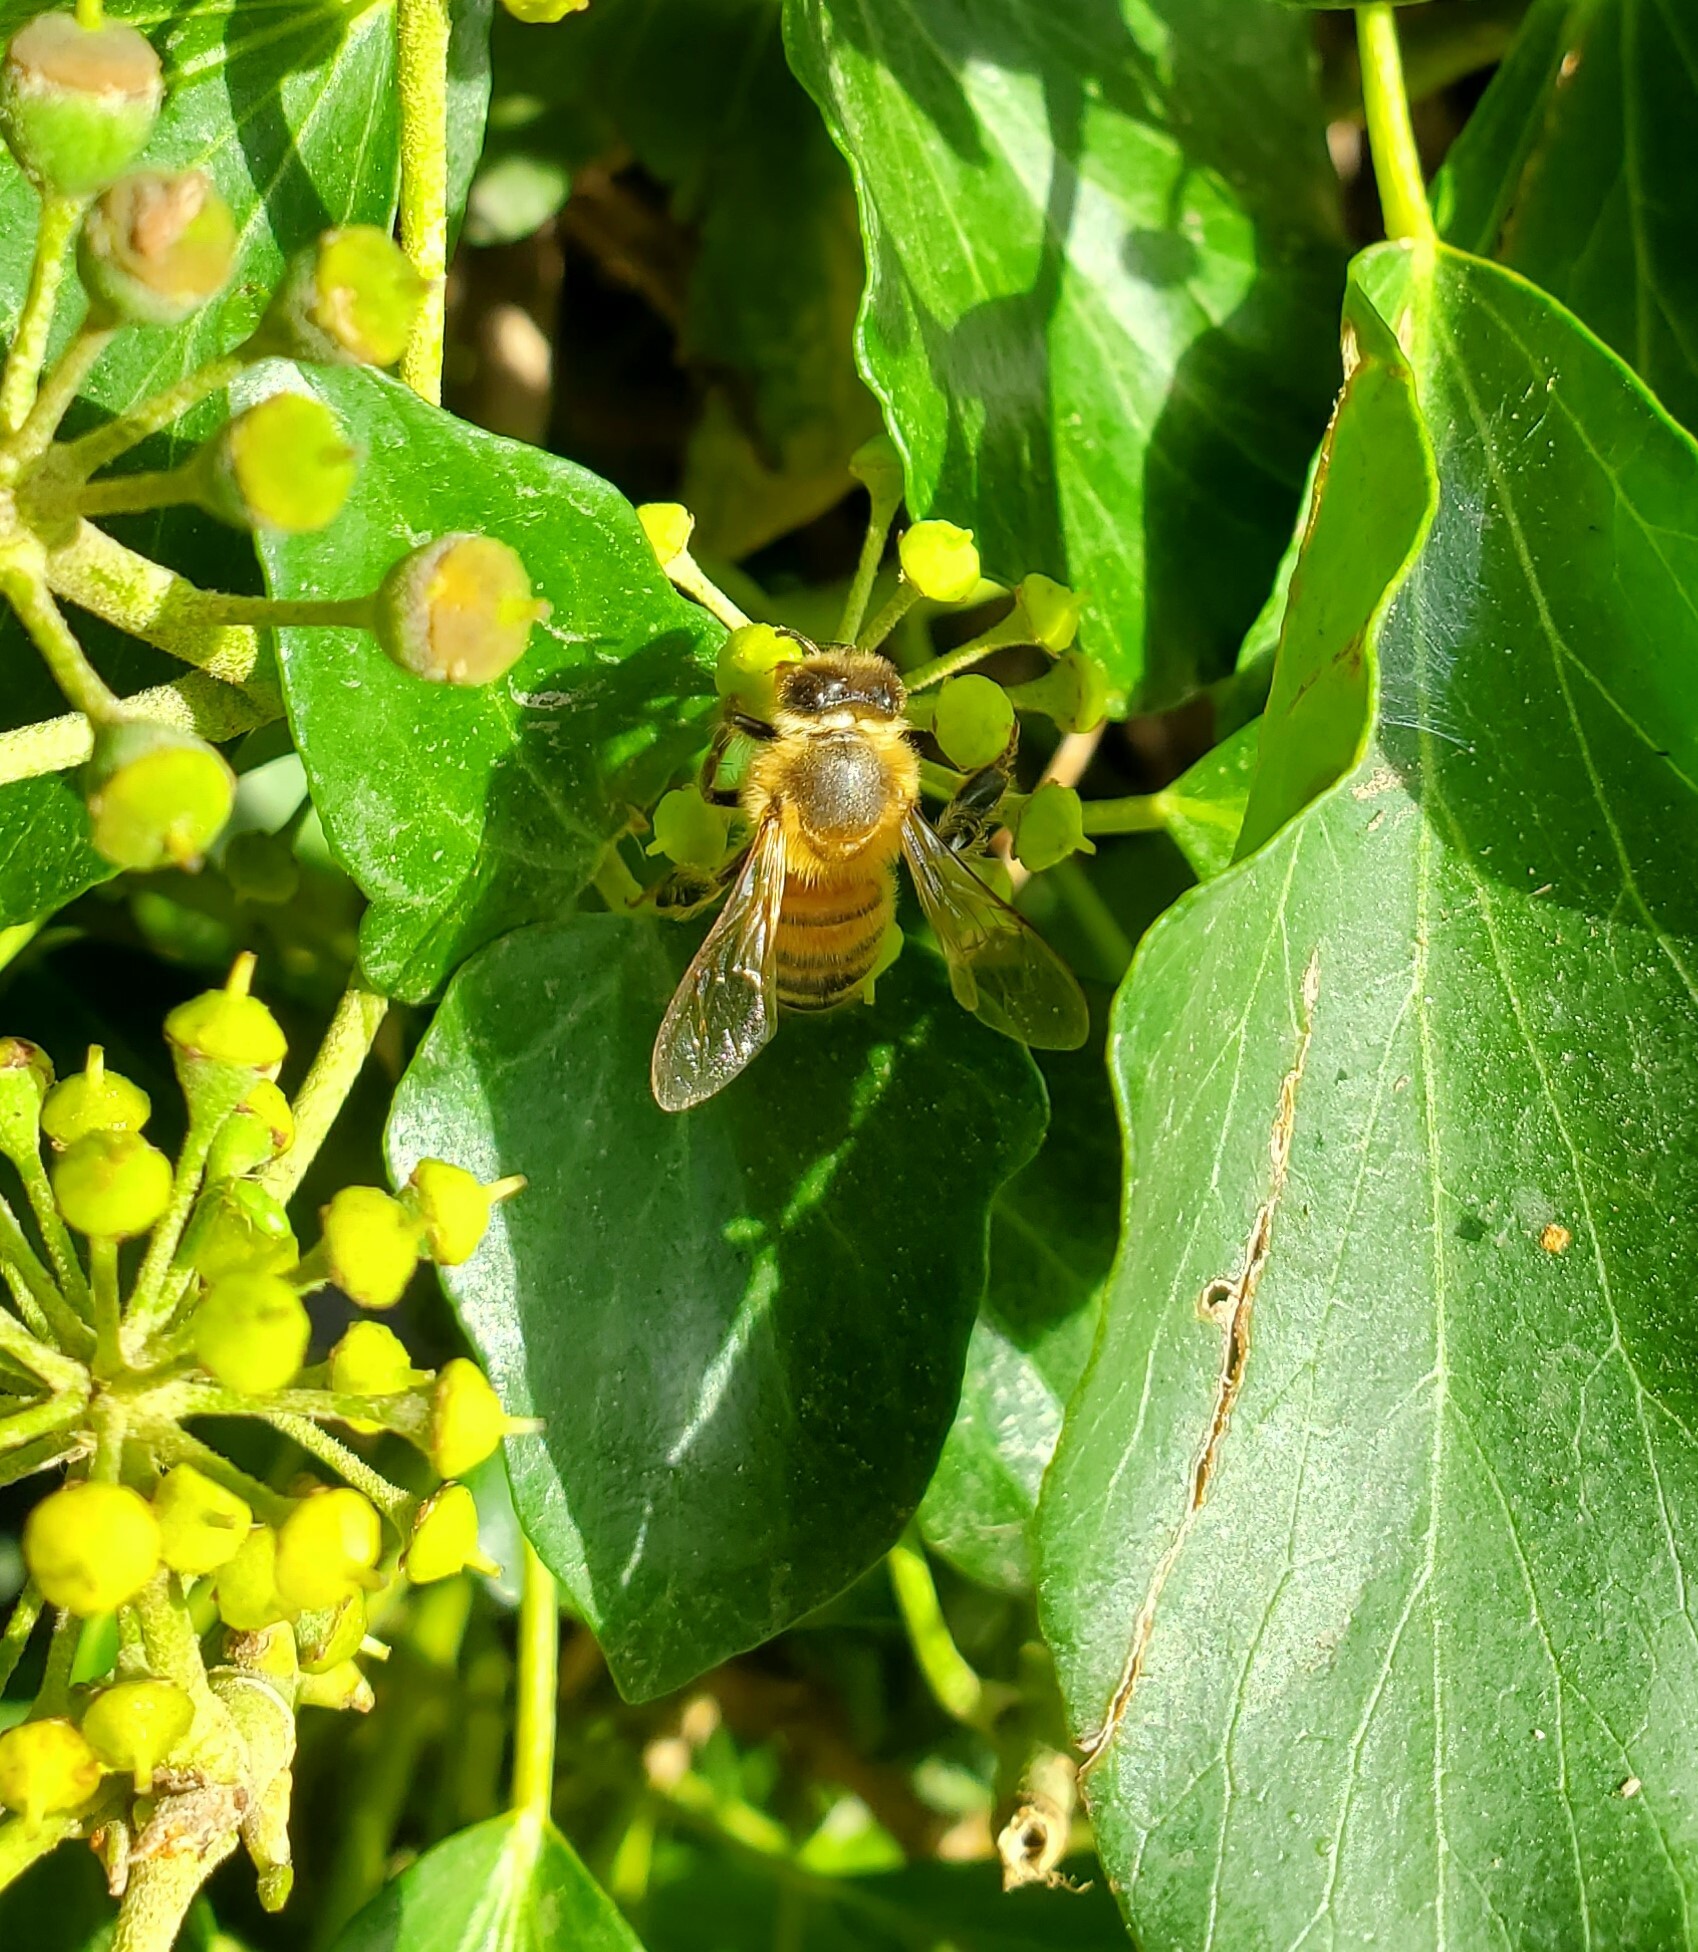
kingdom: Animalia
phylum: Arthropoda
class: Insecta
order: Hymenoptera
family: Apidae
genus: Apis
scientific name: Apis mellifera
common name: Honey bee
